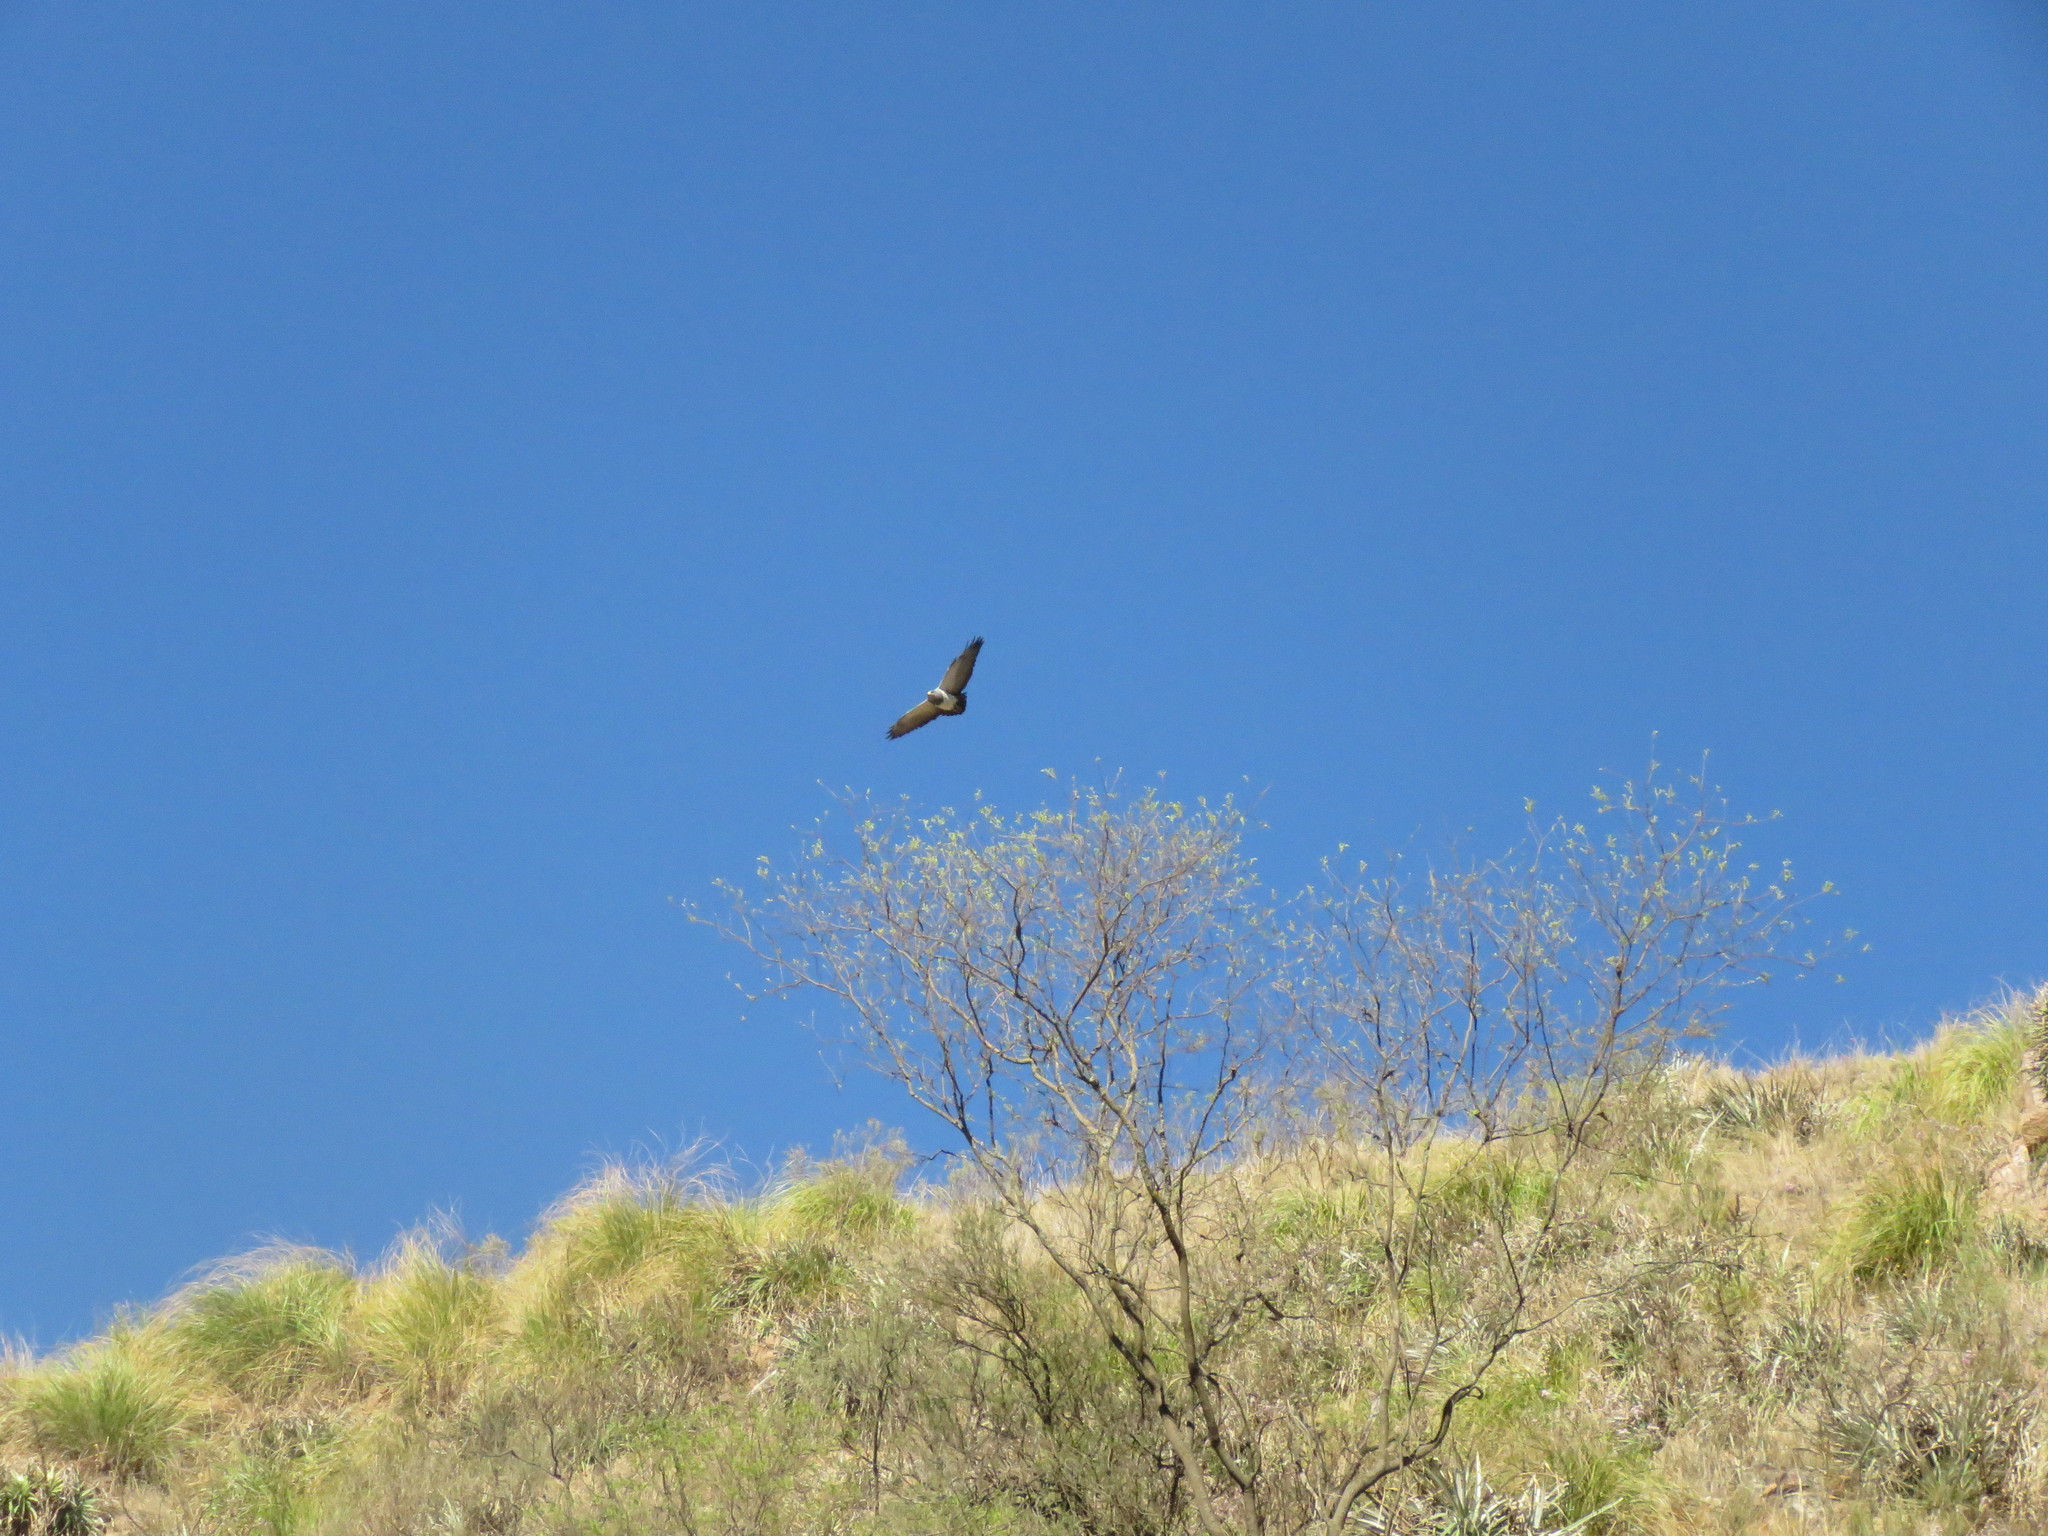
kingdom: Animalia
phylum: Chordata
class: Aves
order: Accipitriformes
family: Accipitridae
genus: Geranoaetus
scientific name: Geranoaetus melanoleucus
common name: Black-chested buzzard-eagle
